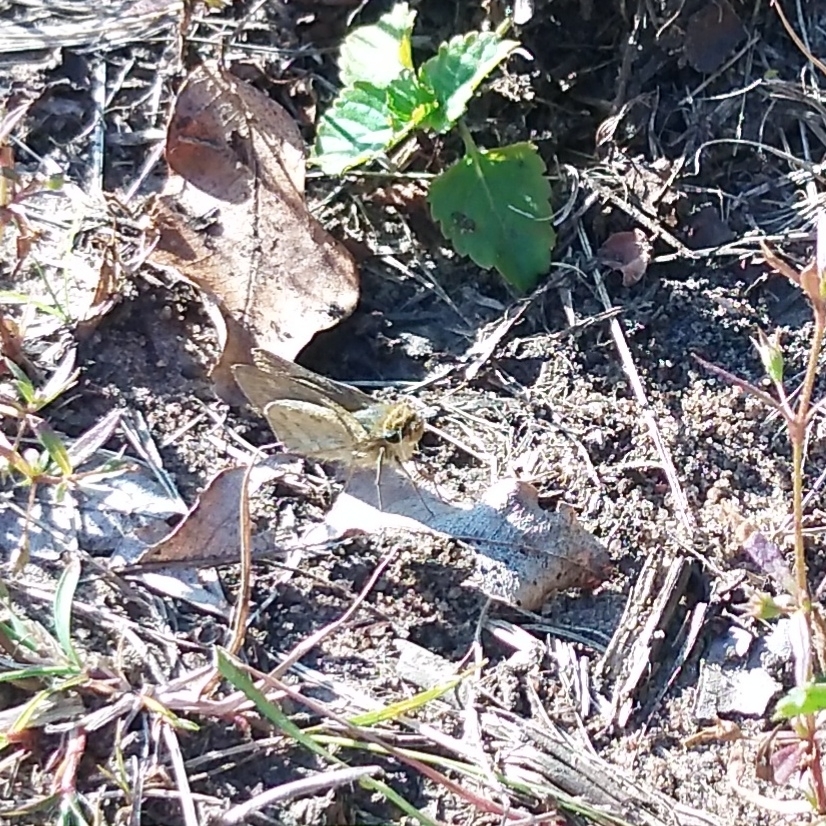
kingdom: Animalia
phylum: Arthropoda
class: Insecta
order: Hymenoptera
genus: Afrogenes
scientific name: Afrogenes
